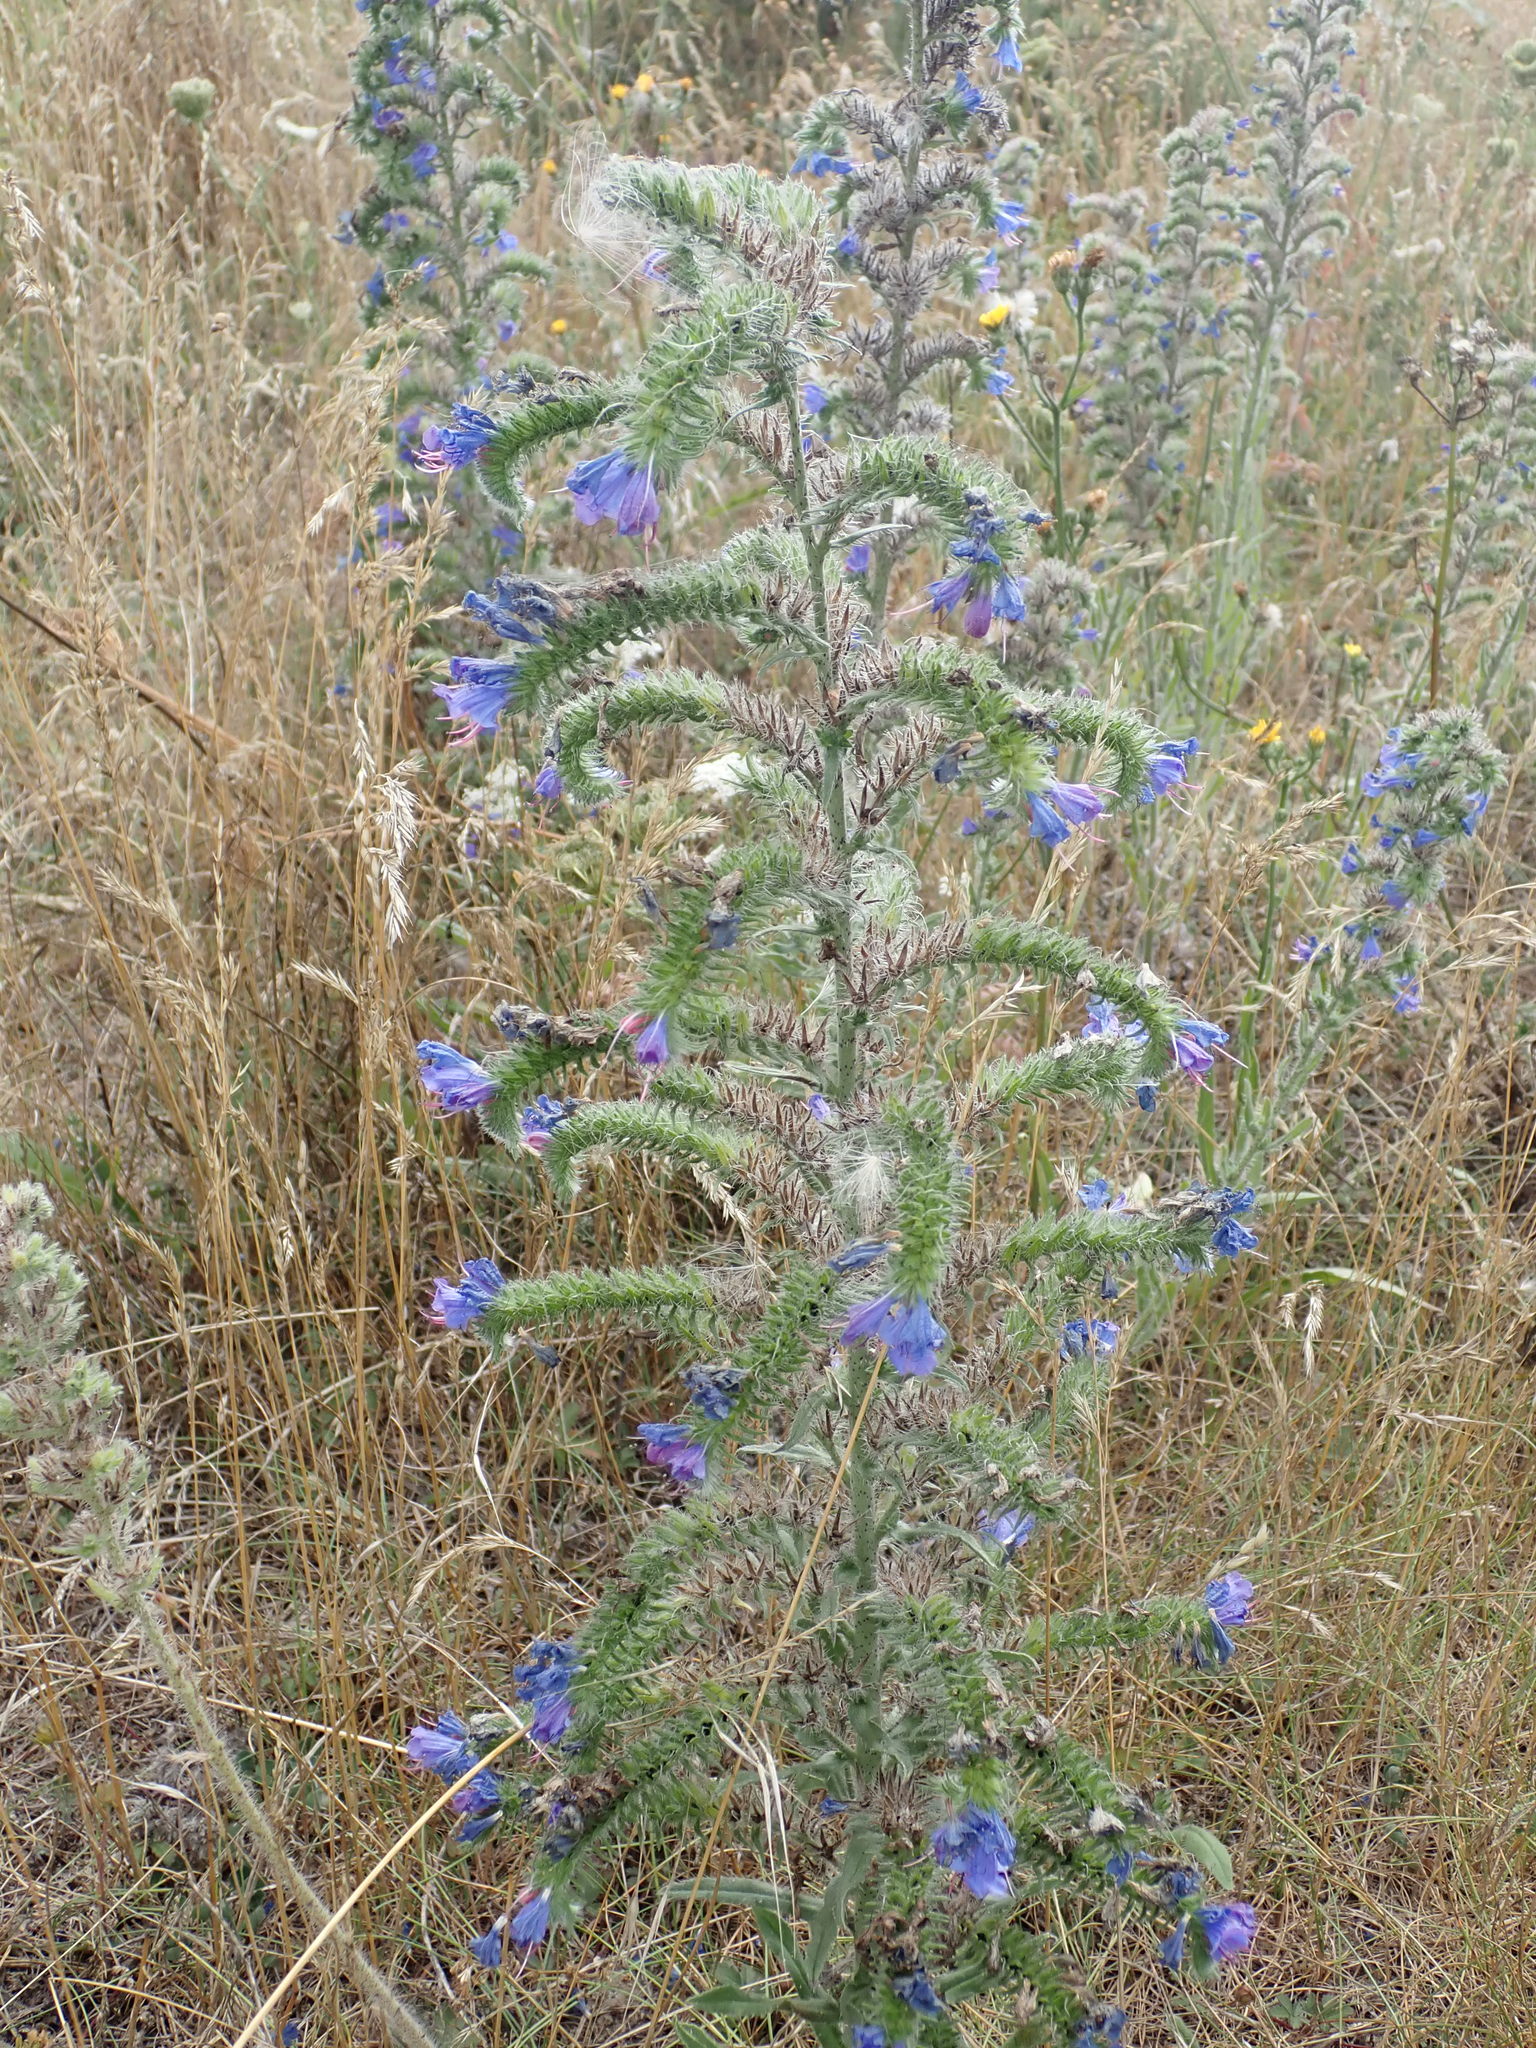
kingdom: Plantae
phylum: Tracheophyta
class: Magnoliopsida
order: Boraginales
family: Boraginaceae
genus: Echium
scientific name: Echium vulgare
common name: Common viper's bugloss
